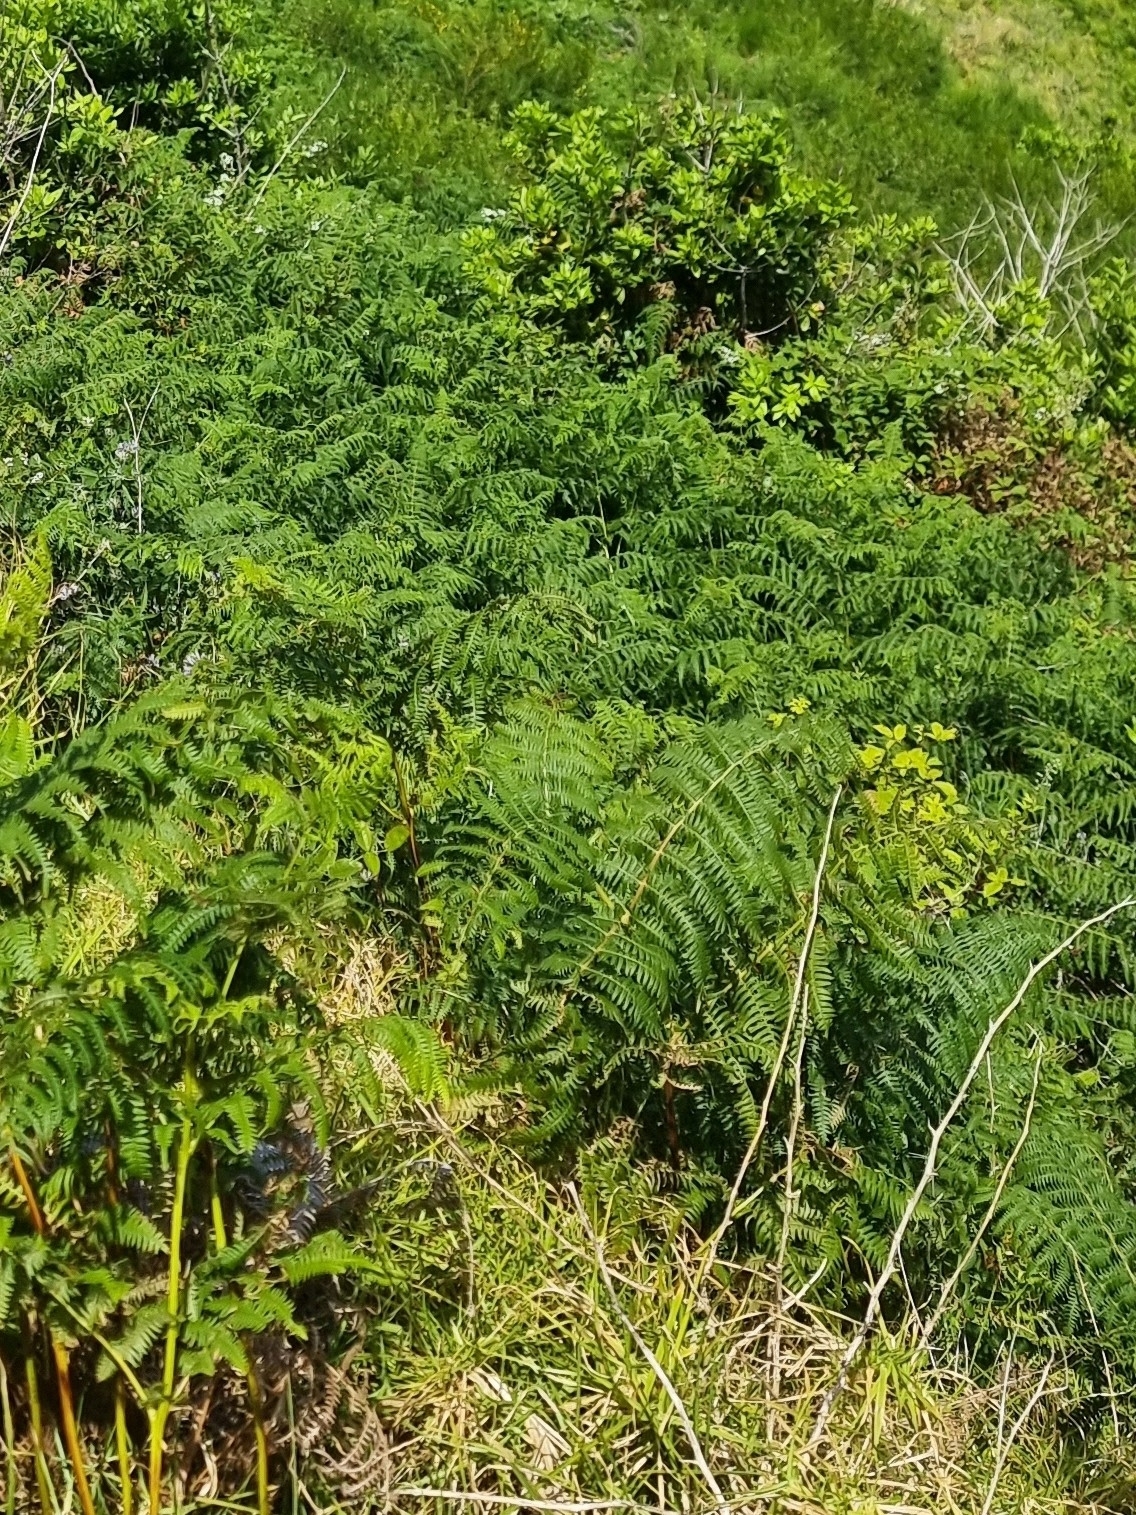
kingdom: Plantae
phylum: Tracheophyta
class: Polypodiopsida
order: Polypodiales
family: Dennstaedtiaceae
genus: Pteridium
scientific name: Pteridium aquilinum
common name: Bracken
